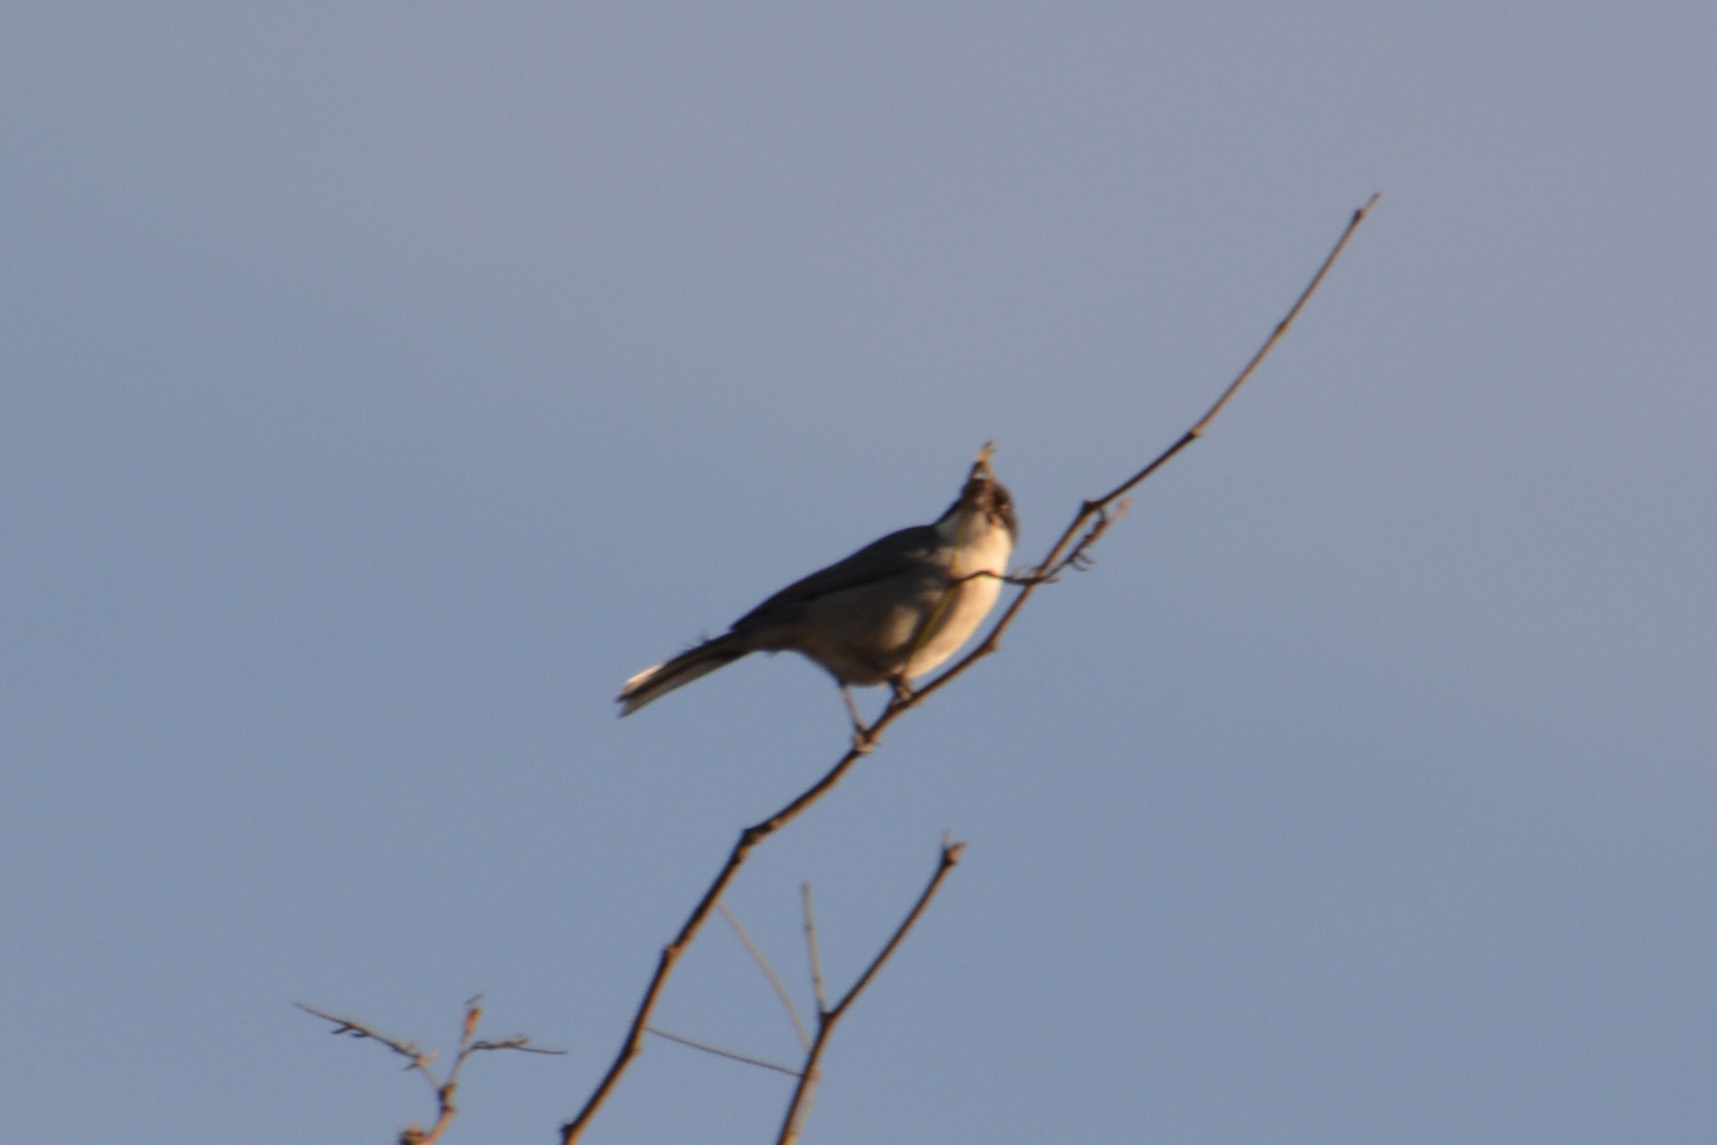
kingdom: Animalia
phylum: Chordata
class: Aves
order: Passeriformes
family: Thraupidae
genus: Microspingus
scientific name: Microspingus melanoleucus
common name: Black-capped warbling-finch
